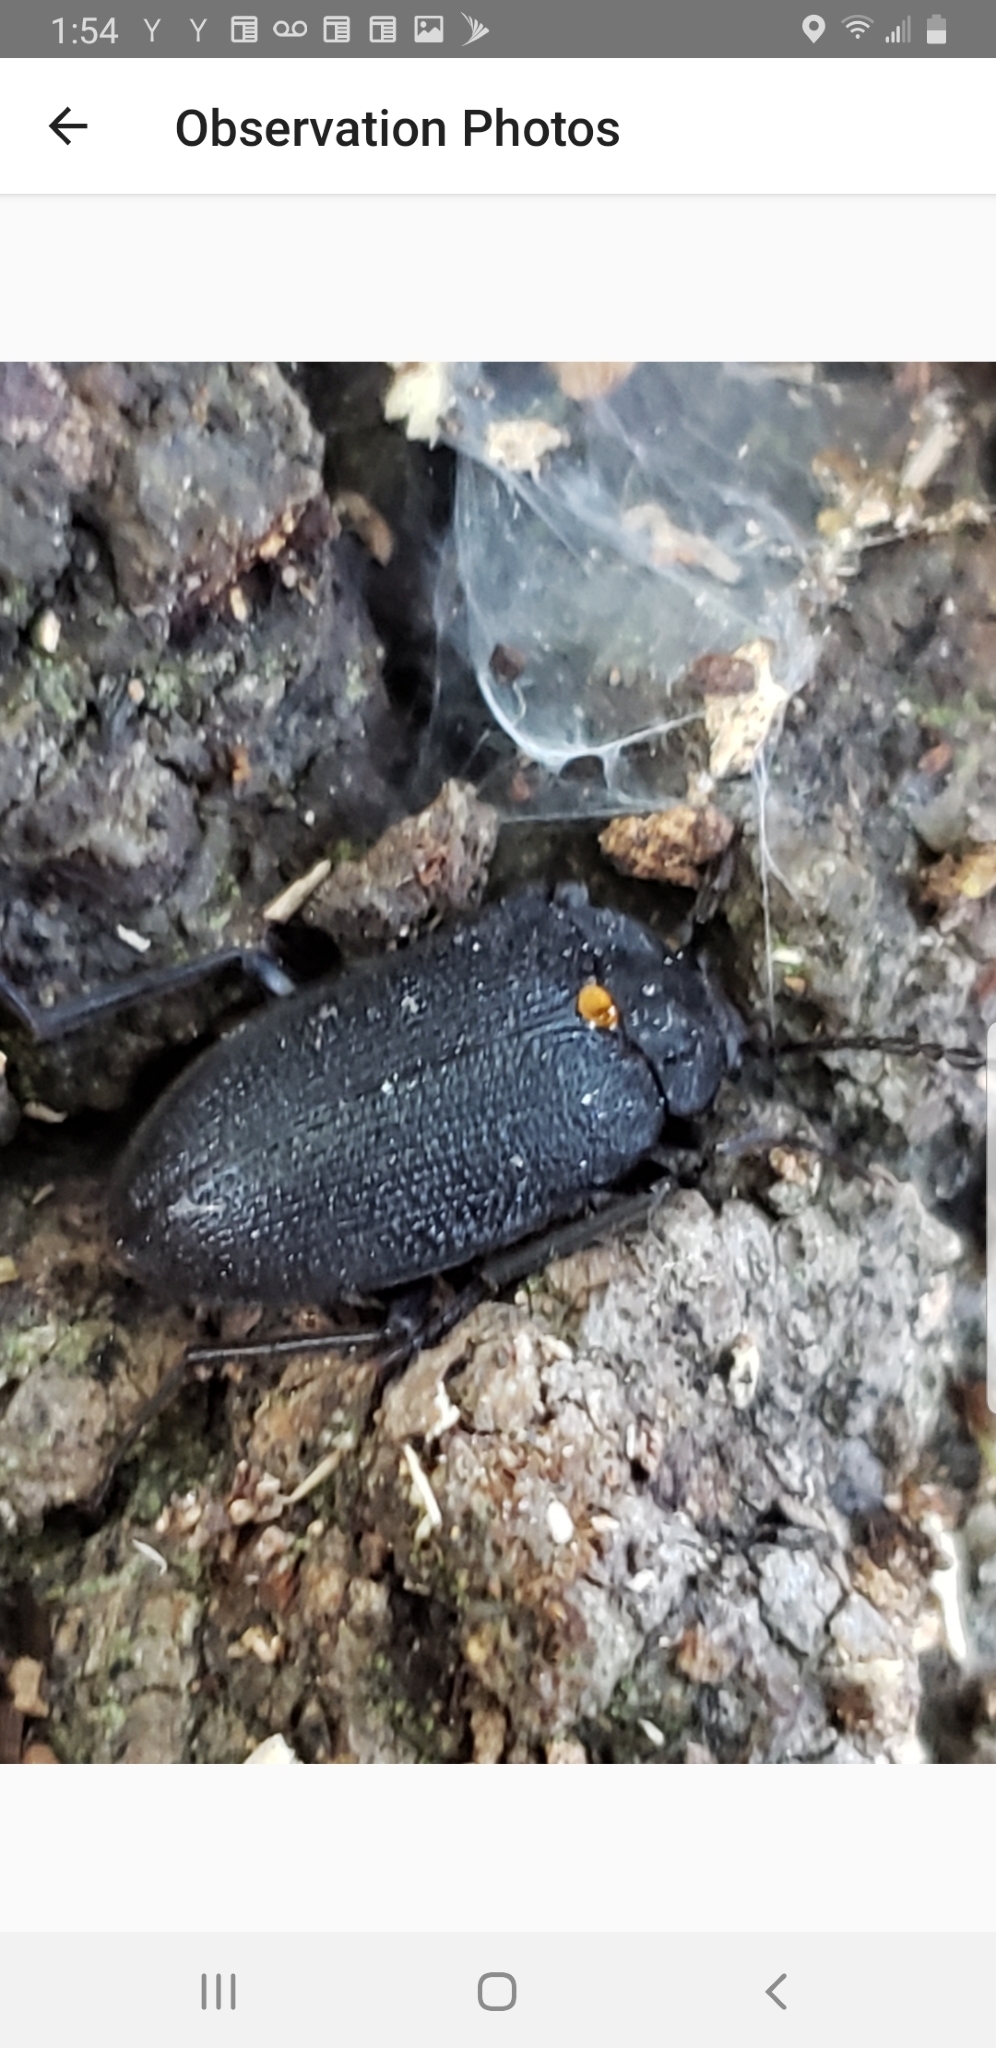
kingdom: Animalia
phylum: Arthropoda
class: Insecta
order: Coleoptera
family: Tetratomidae
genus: Penthe
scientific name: Penthe obliquata
